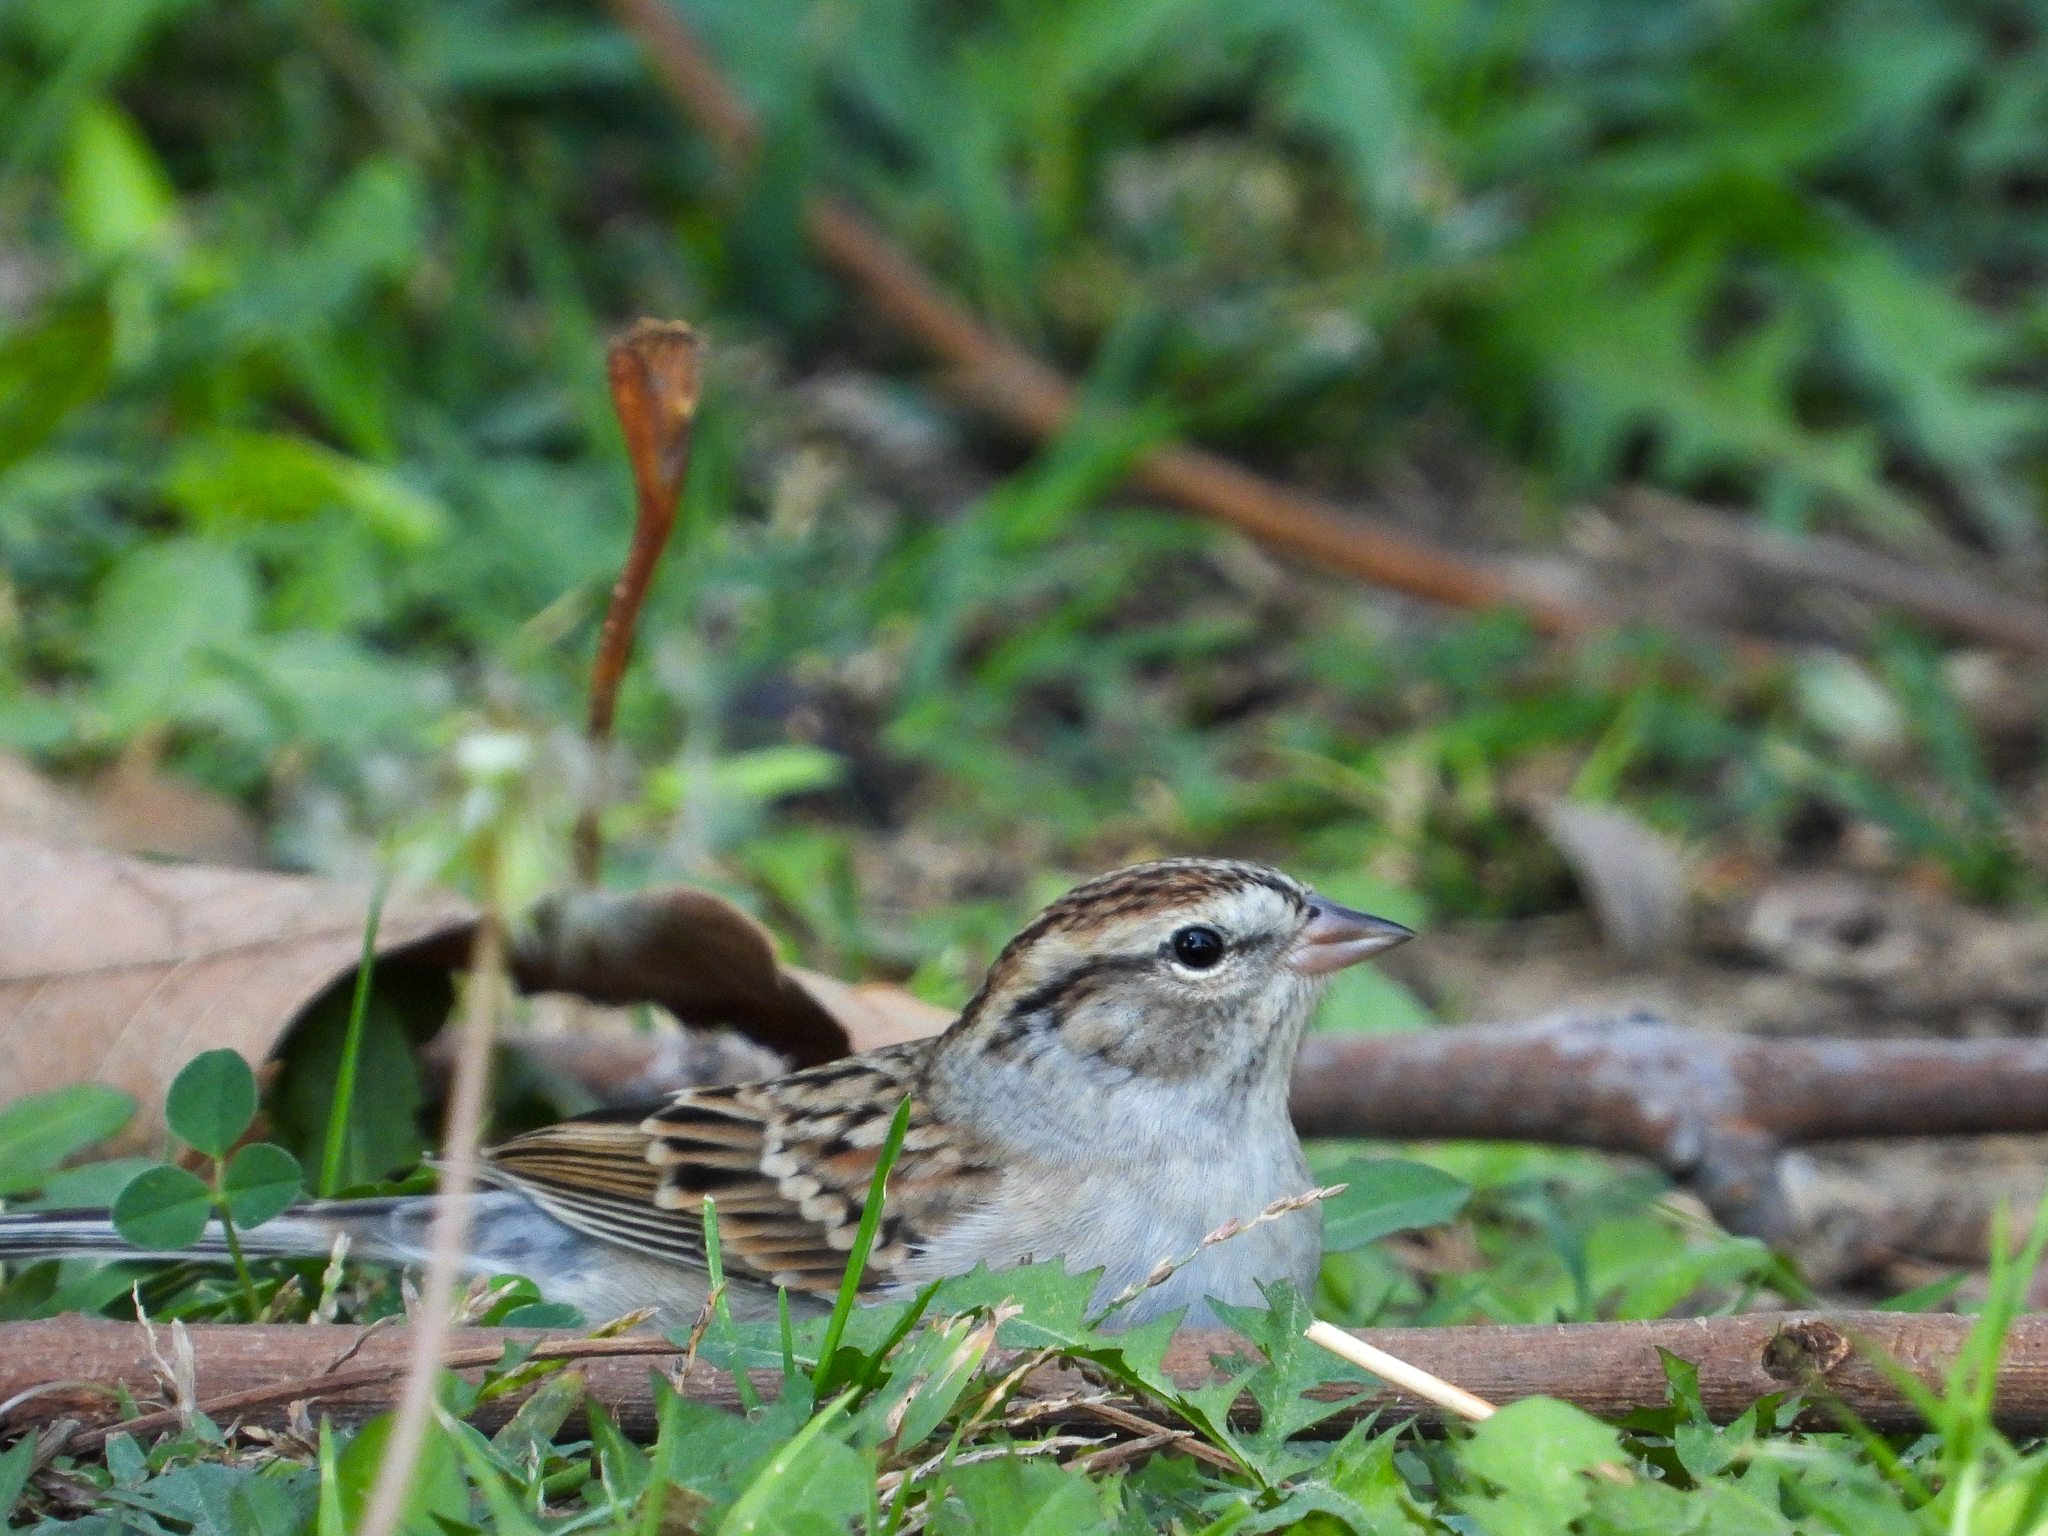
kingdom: Animalia
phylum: Chordata
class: Aves
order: Passeriformes
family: Passerellidae
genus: Spizella
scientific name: Spizella passerina
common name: Chipping sparrow
